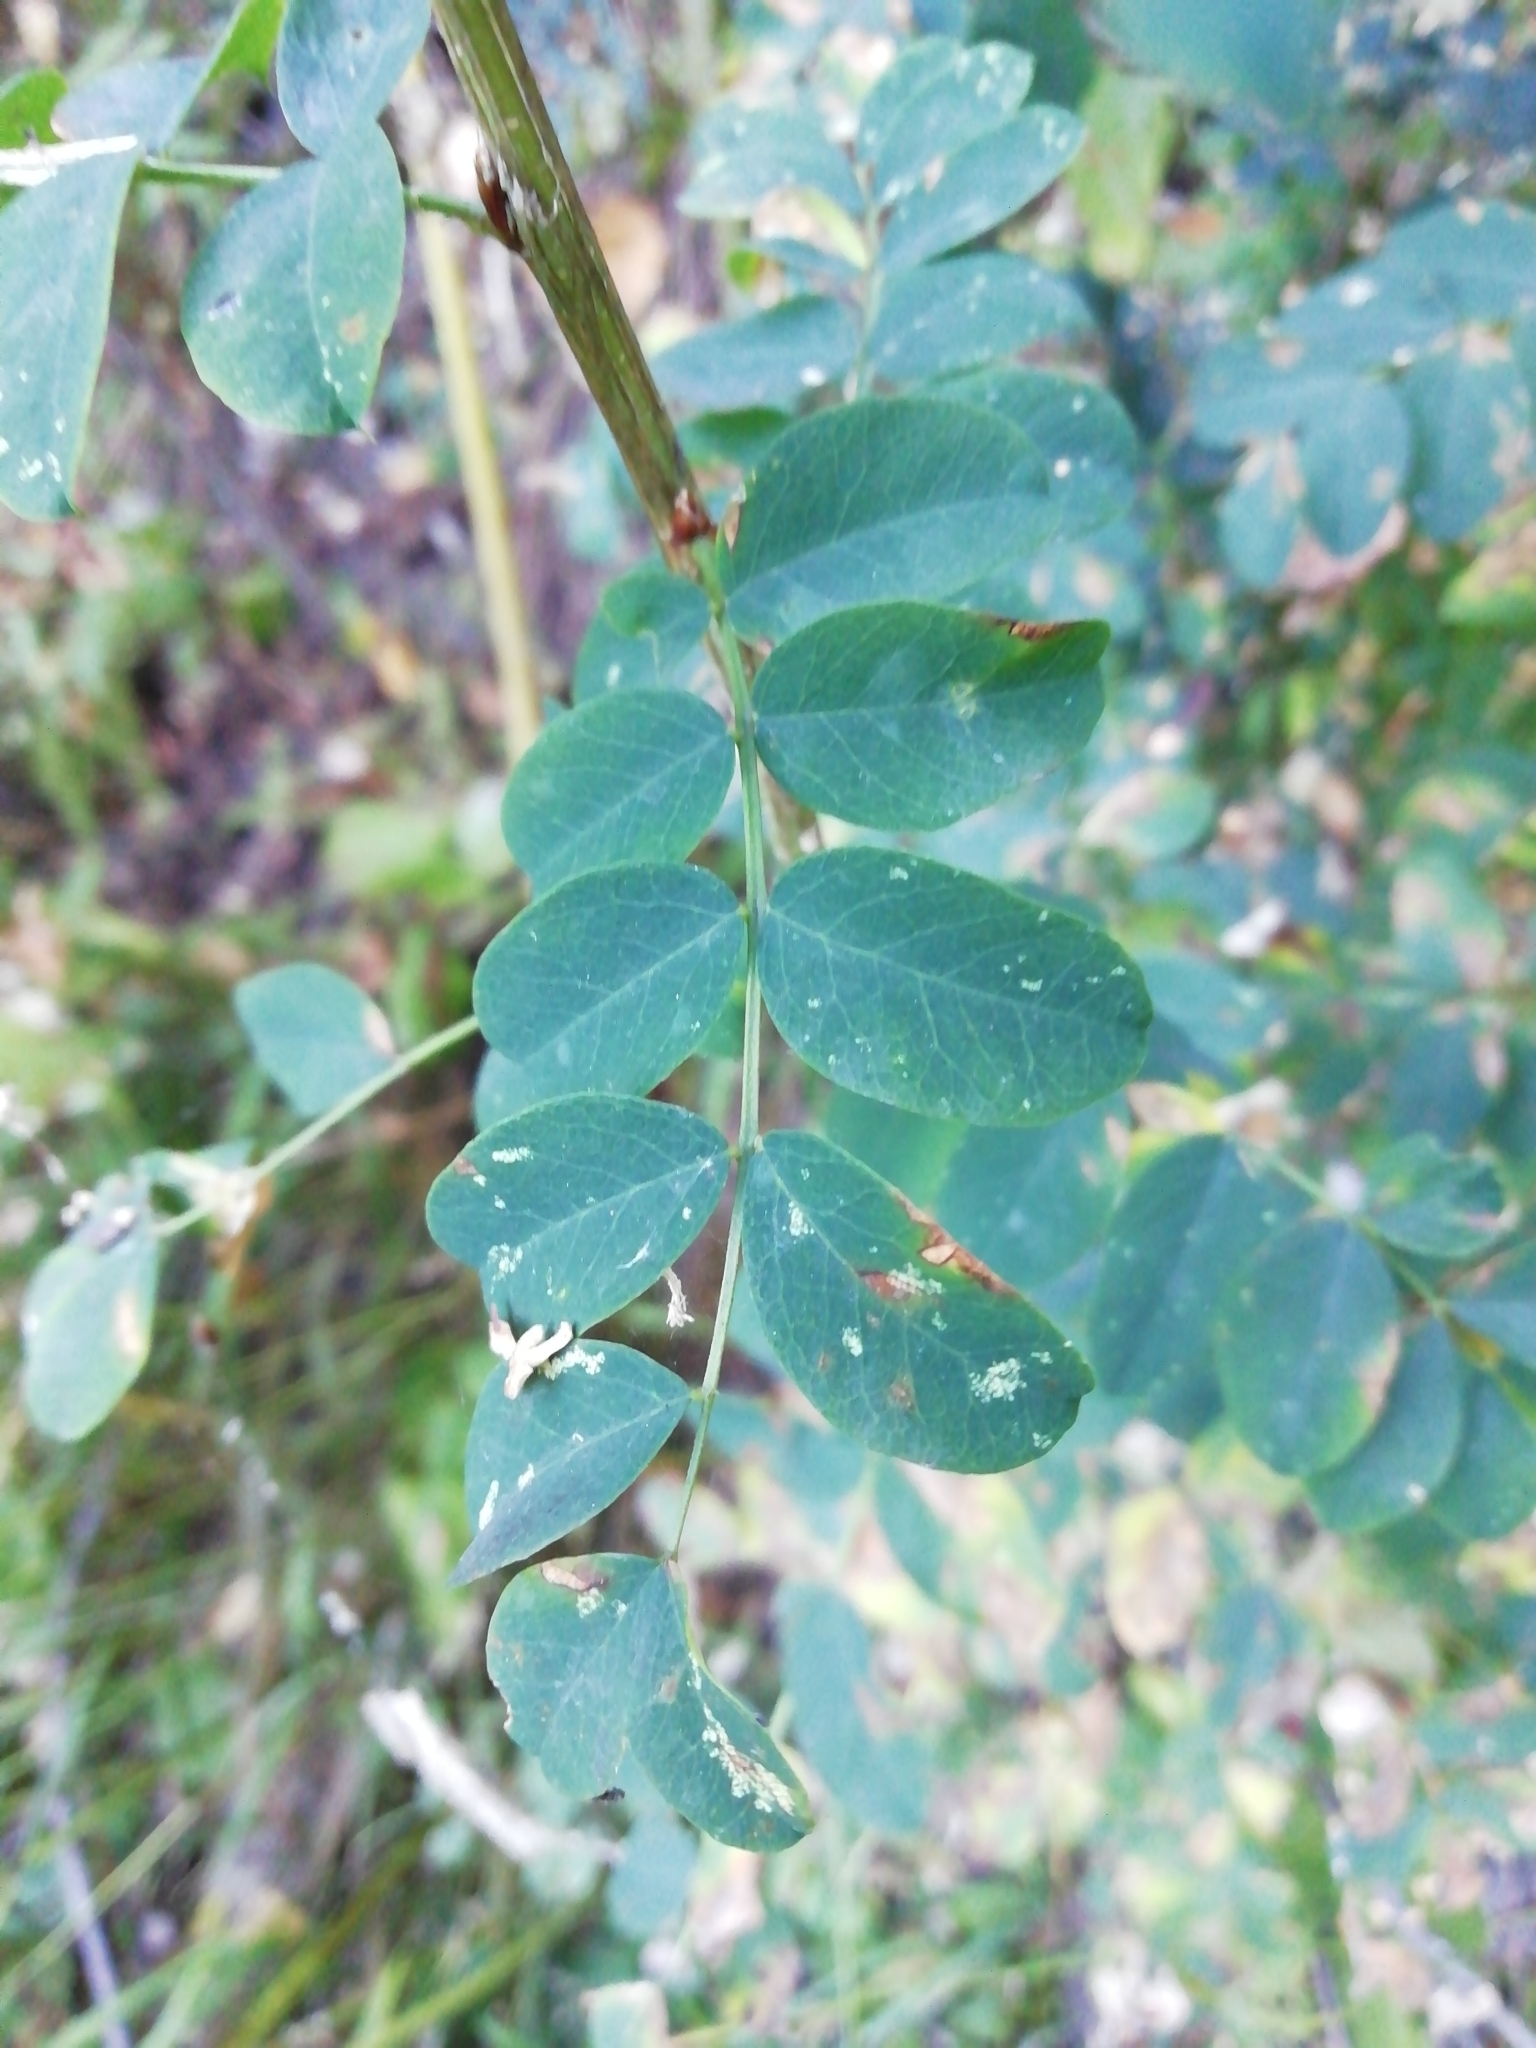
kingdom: Plantae
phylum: Tracheophyta
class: Magnoliopsida
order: Fabales
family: Fabaceae
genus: Caragana
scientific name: Caragana arborescens
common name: Siberian peashrub
